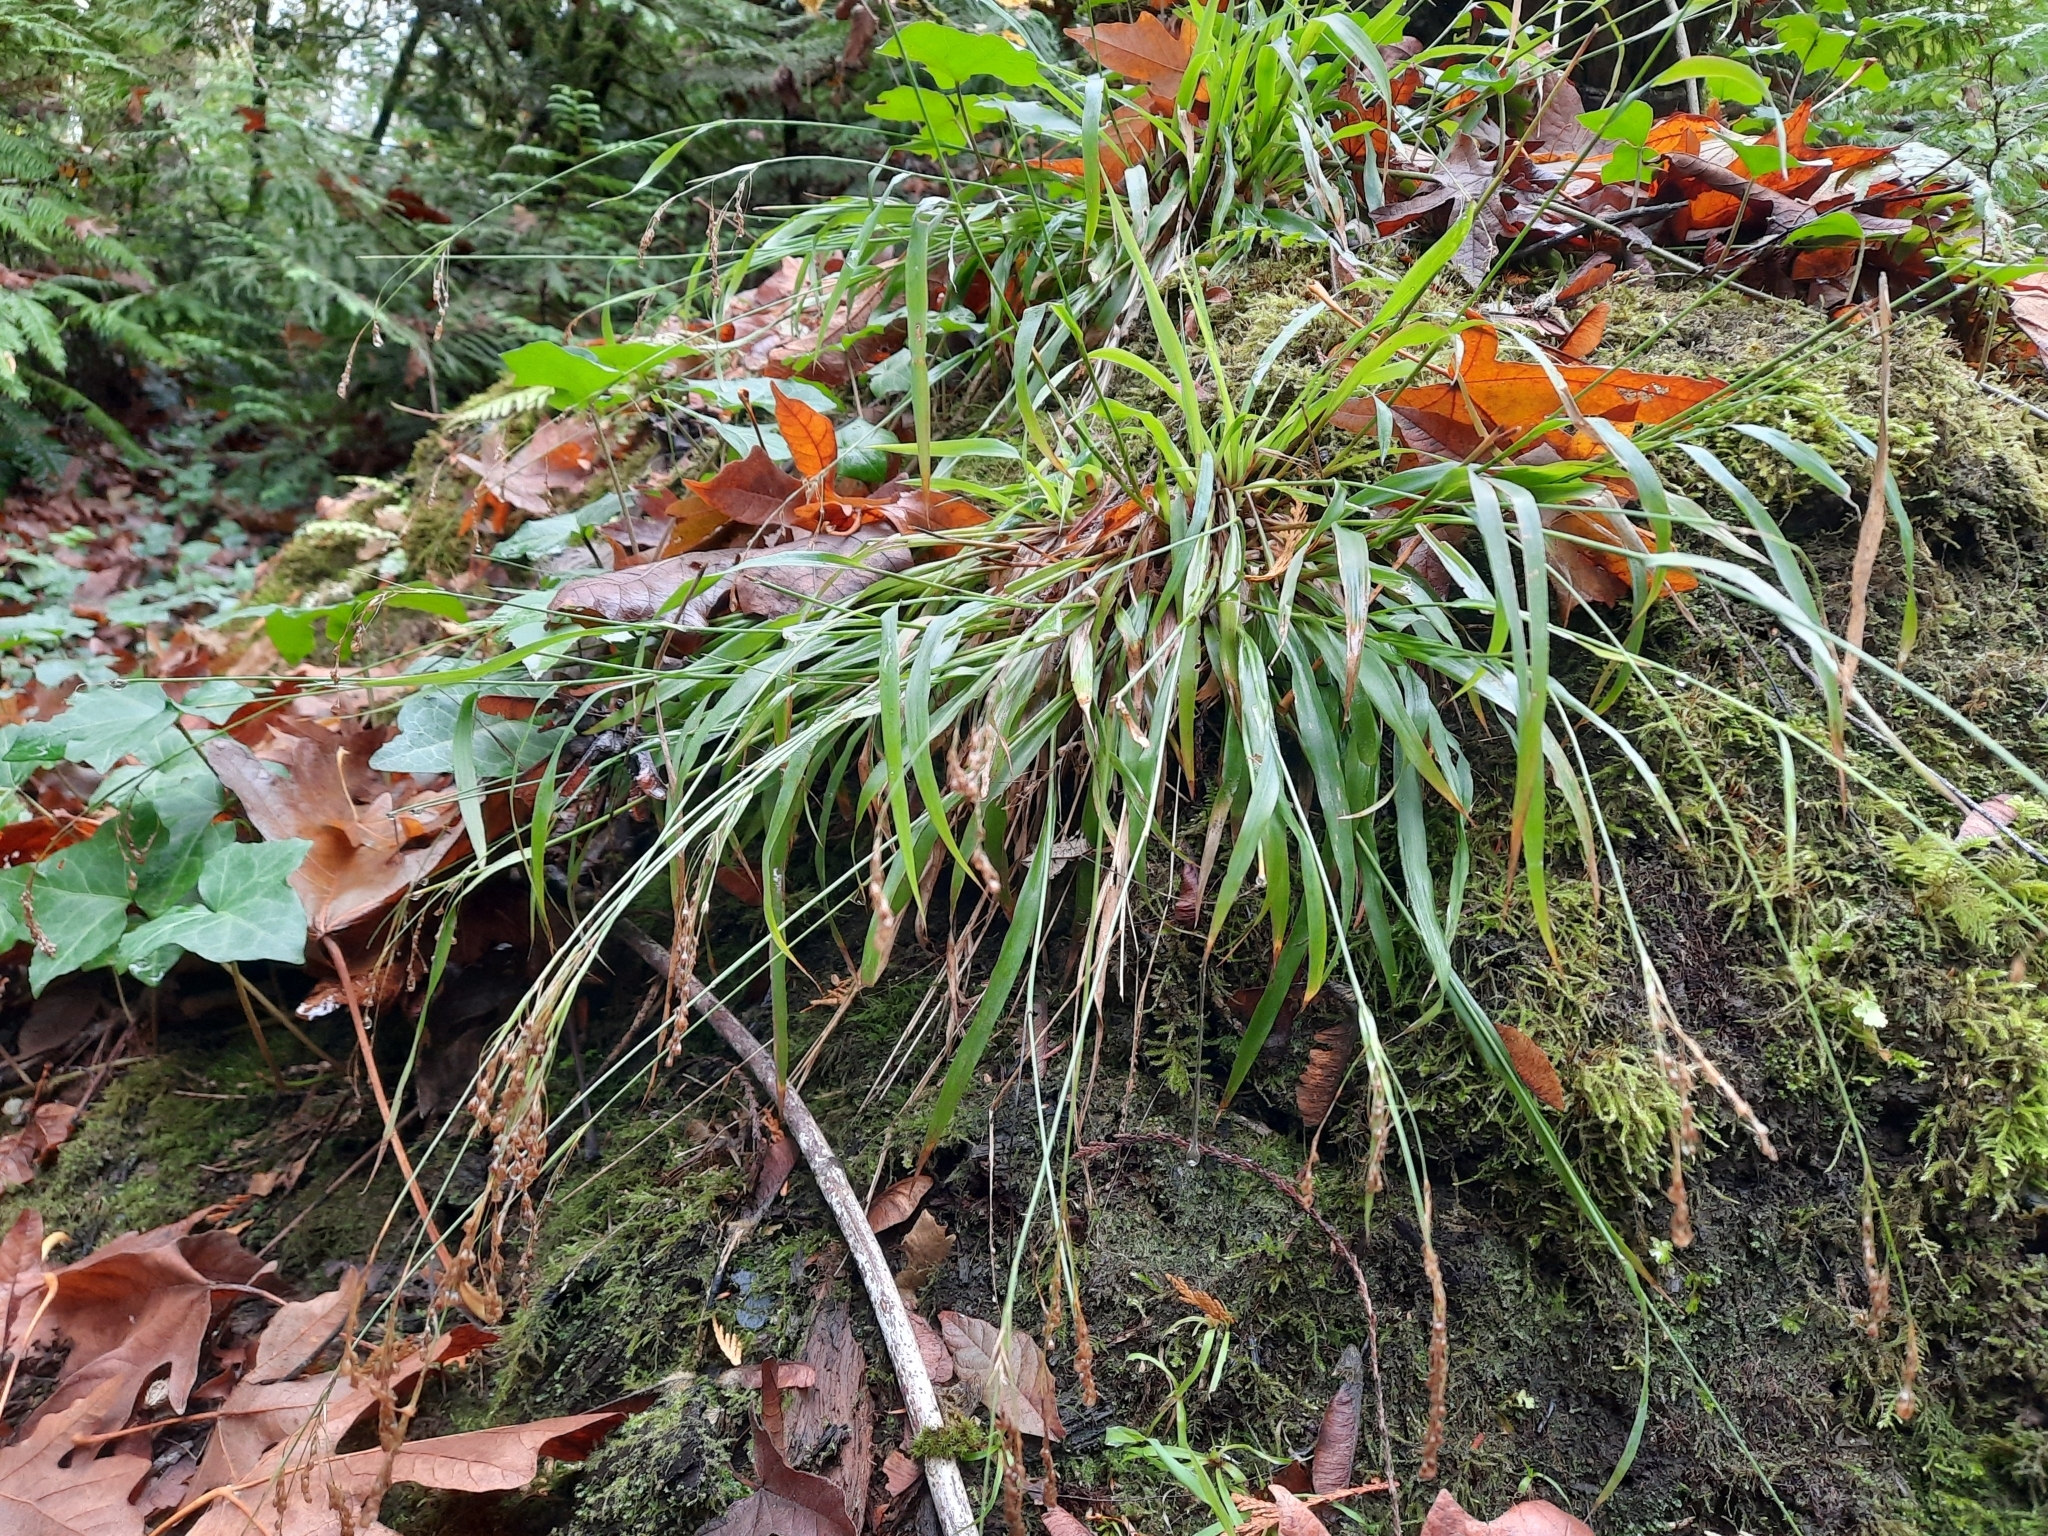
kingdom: Plantae
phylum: Tracheophyta
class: Liliopsida
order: Poales
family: Juncaceae
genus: Luzula
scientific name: Luzula parviflora
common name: Millet woodrush
